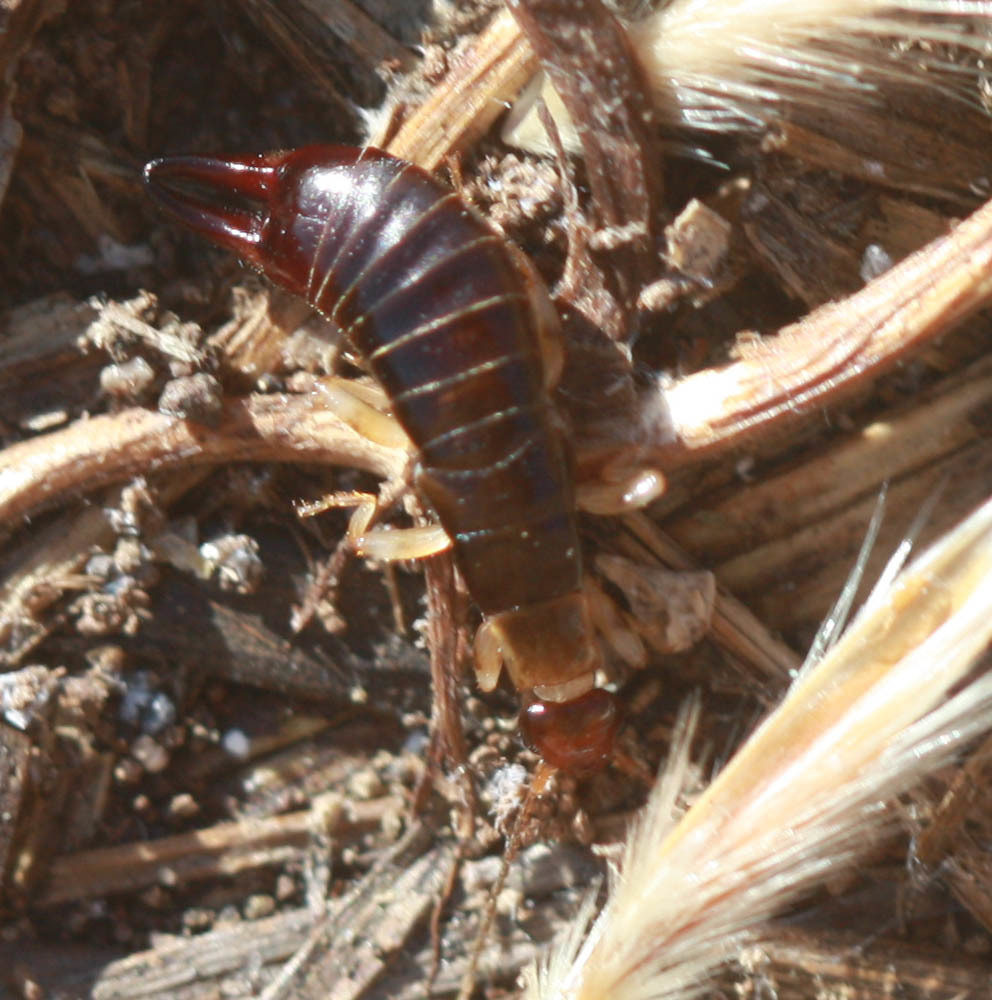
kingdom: Animalia
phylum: Arthropoda
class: Insecta
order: Dermaptera
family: Anisolabididae
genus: Euborellia
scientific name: Euborellia annulipes
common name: Ringlegged earwig
